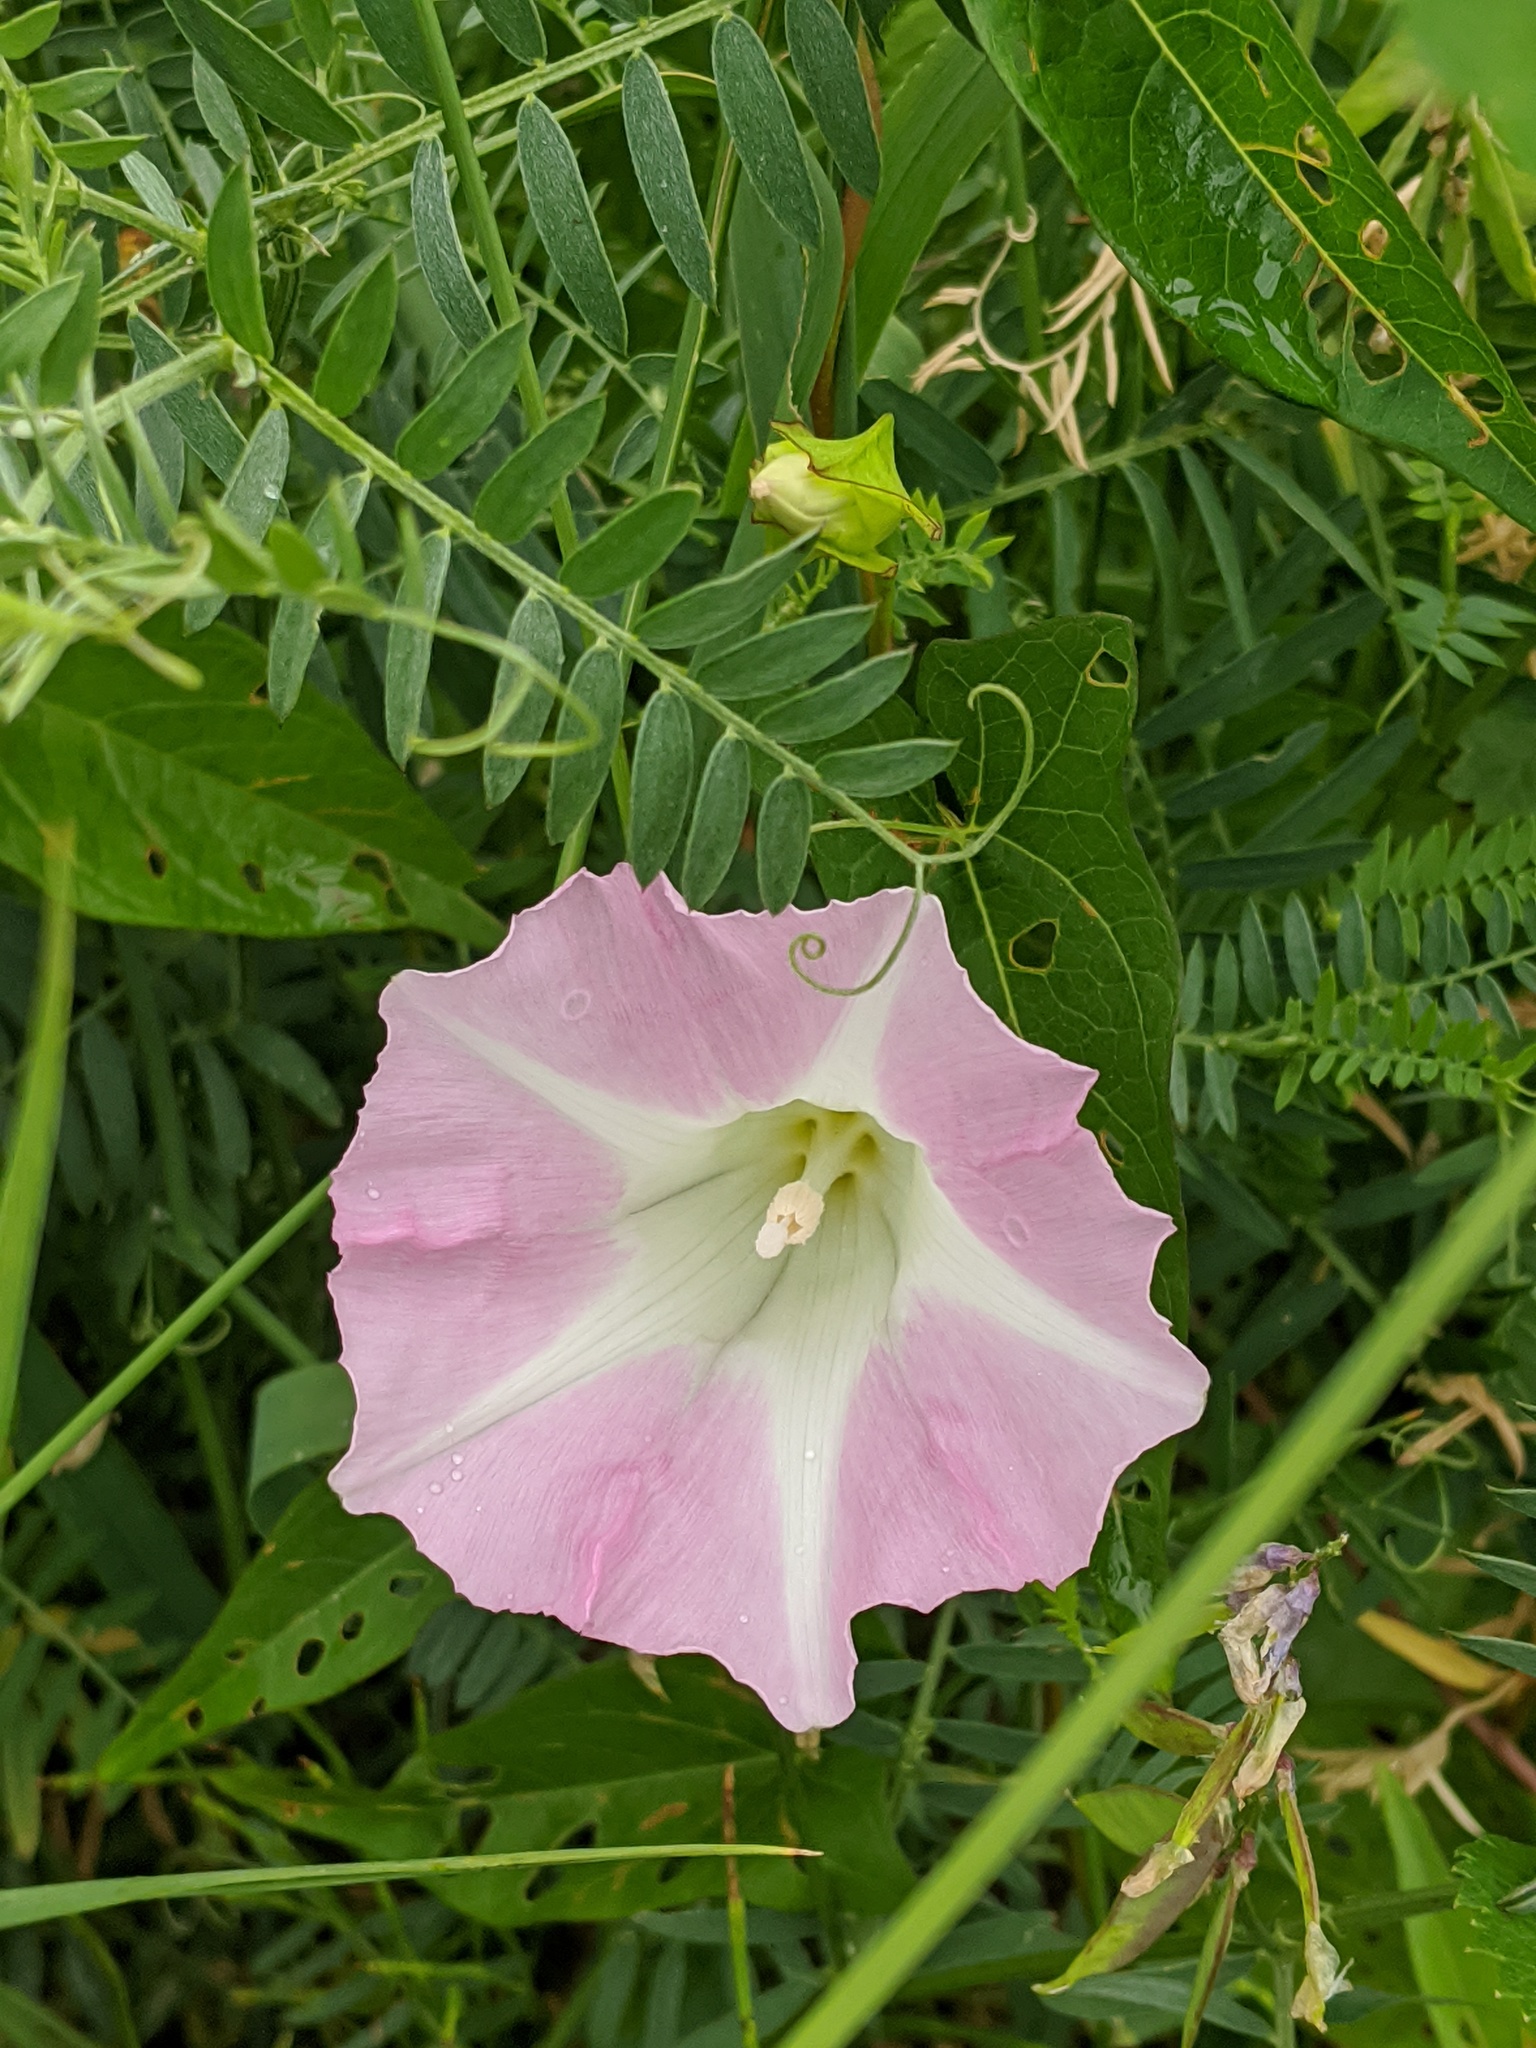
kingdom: Plantae
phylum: Tracheophyta
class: Magnoliopsida
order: Solanales
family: Convolvulaceae
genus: Calystegia
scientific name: Calystegia sepium
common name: Hedge bindweed
